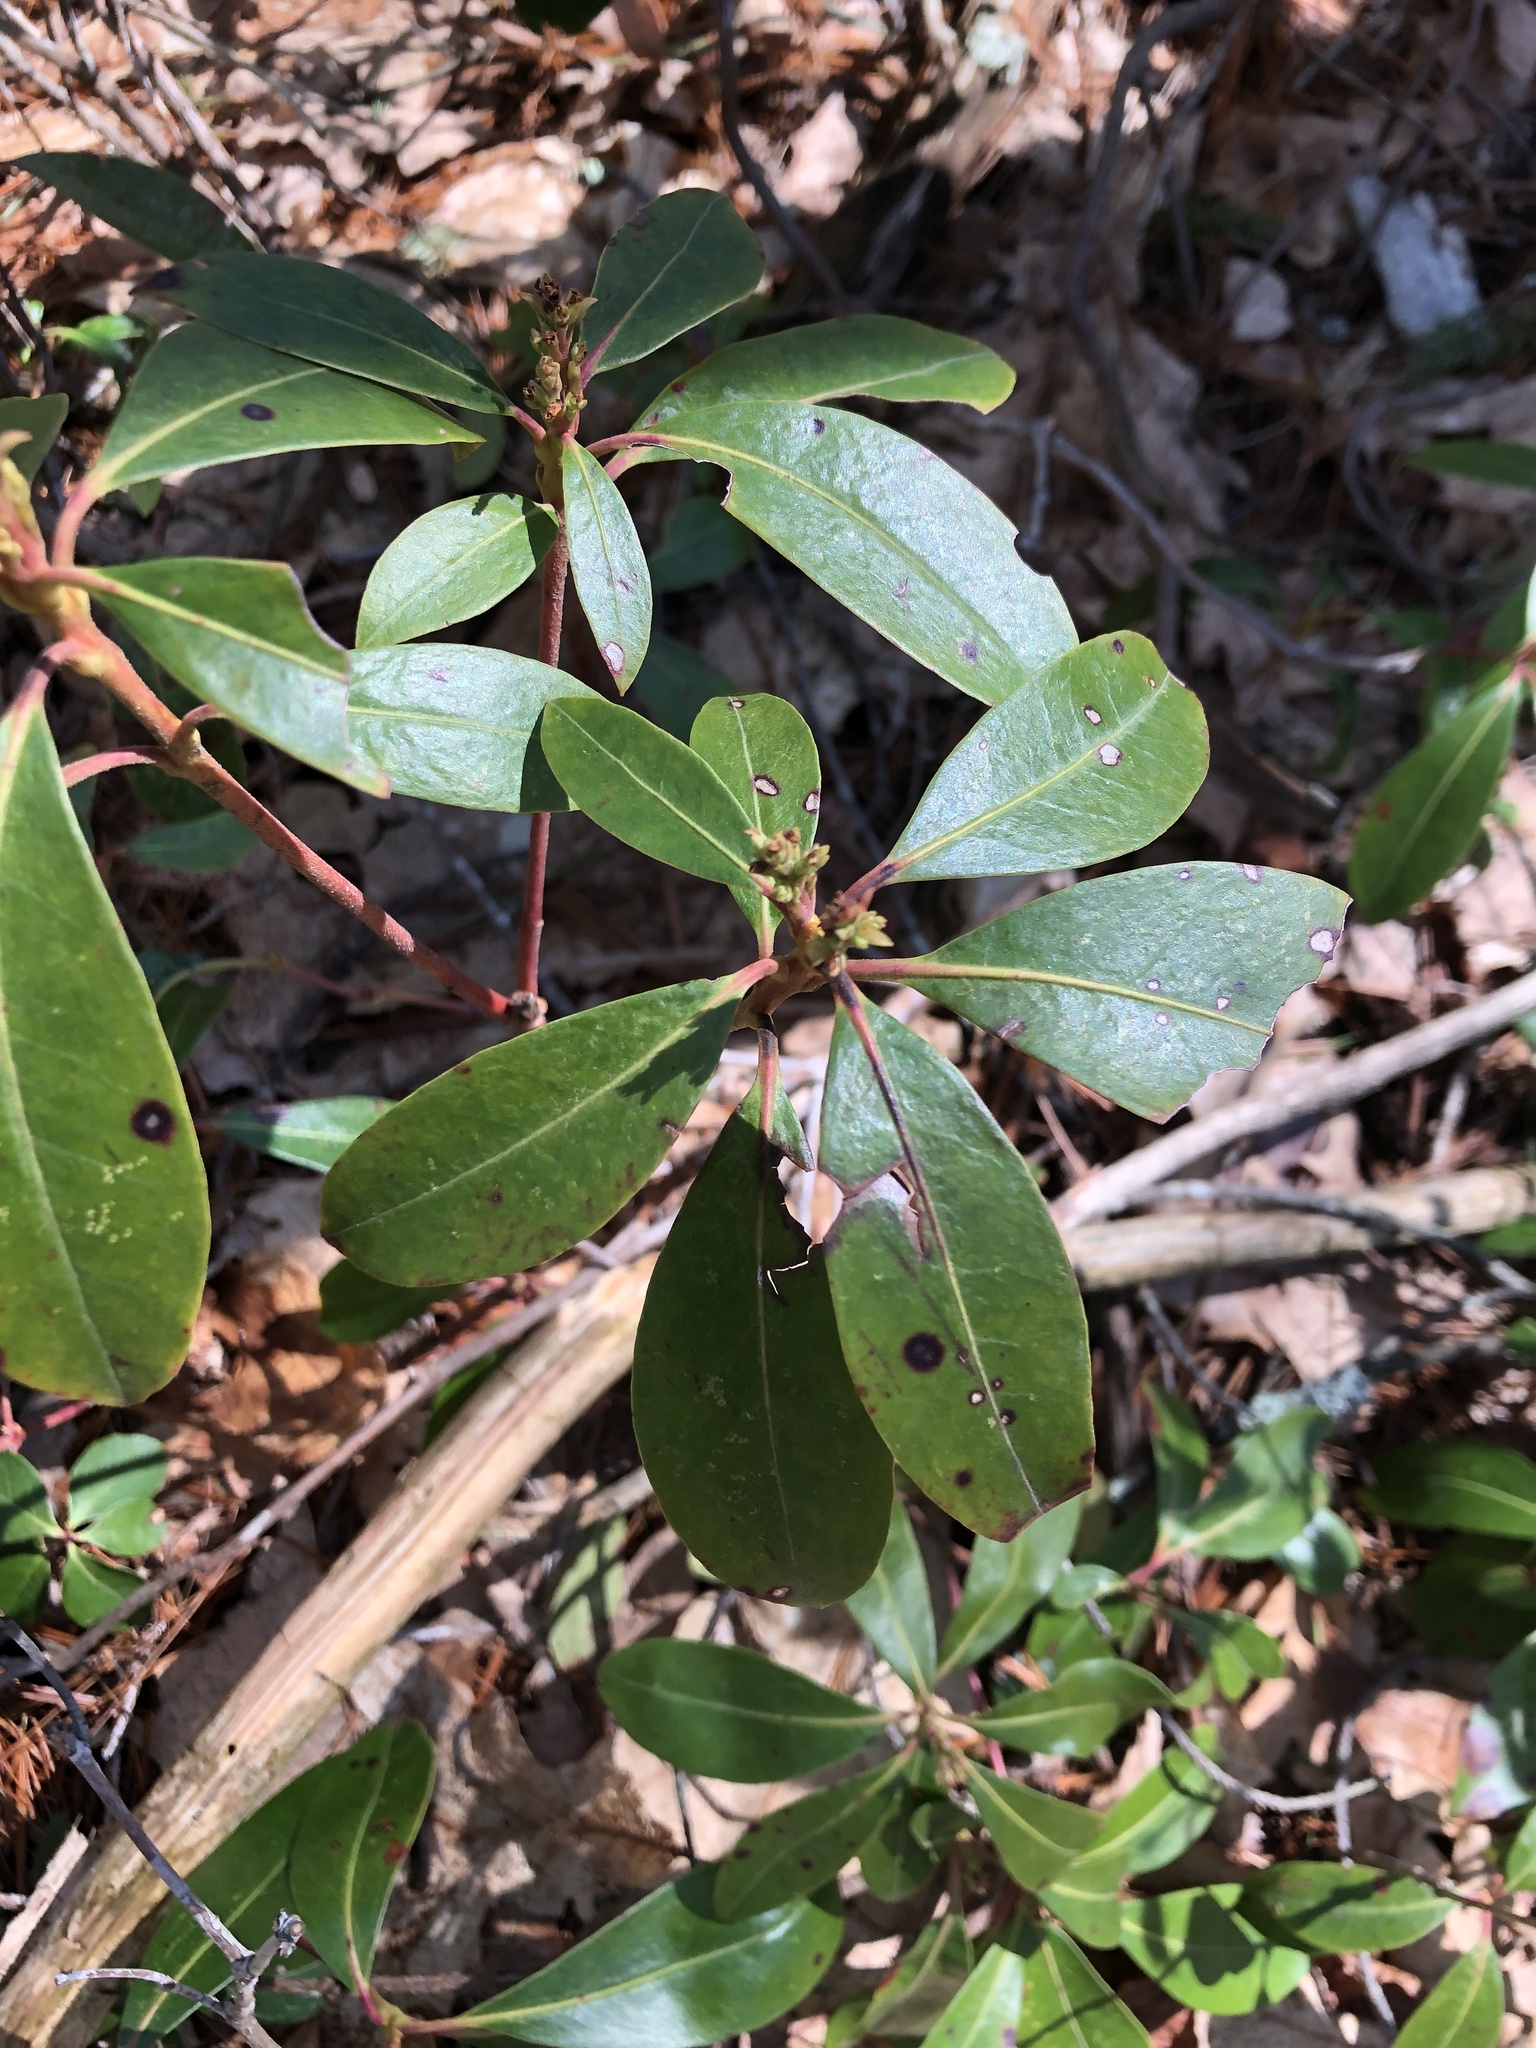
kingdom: Plantae
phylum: Tracheophyta
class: Magnoliopsida
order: Ericales
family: Ericaceae
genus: Kalmia
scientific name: Kalmia latifolia
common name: Mountain-laurel
